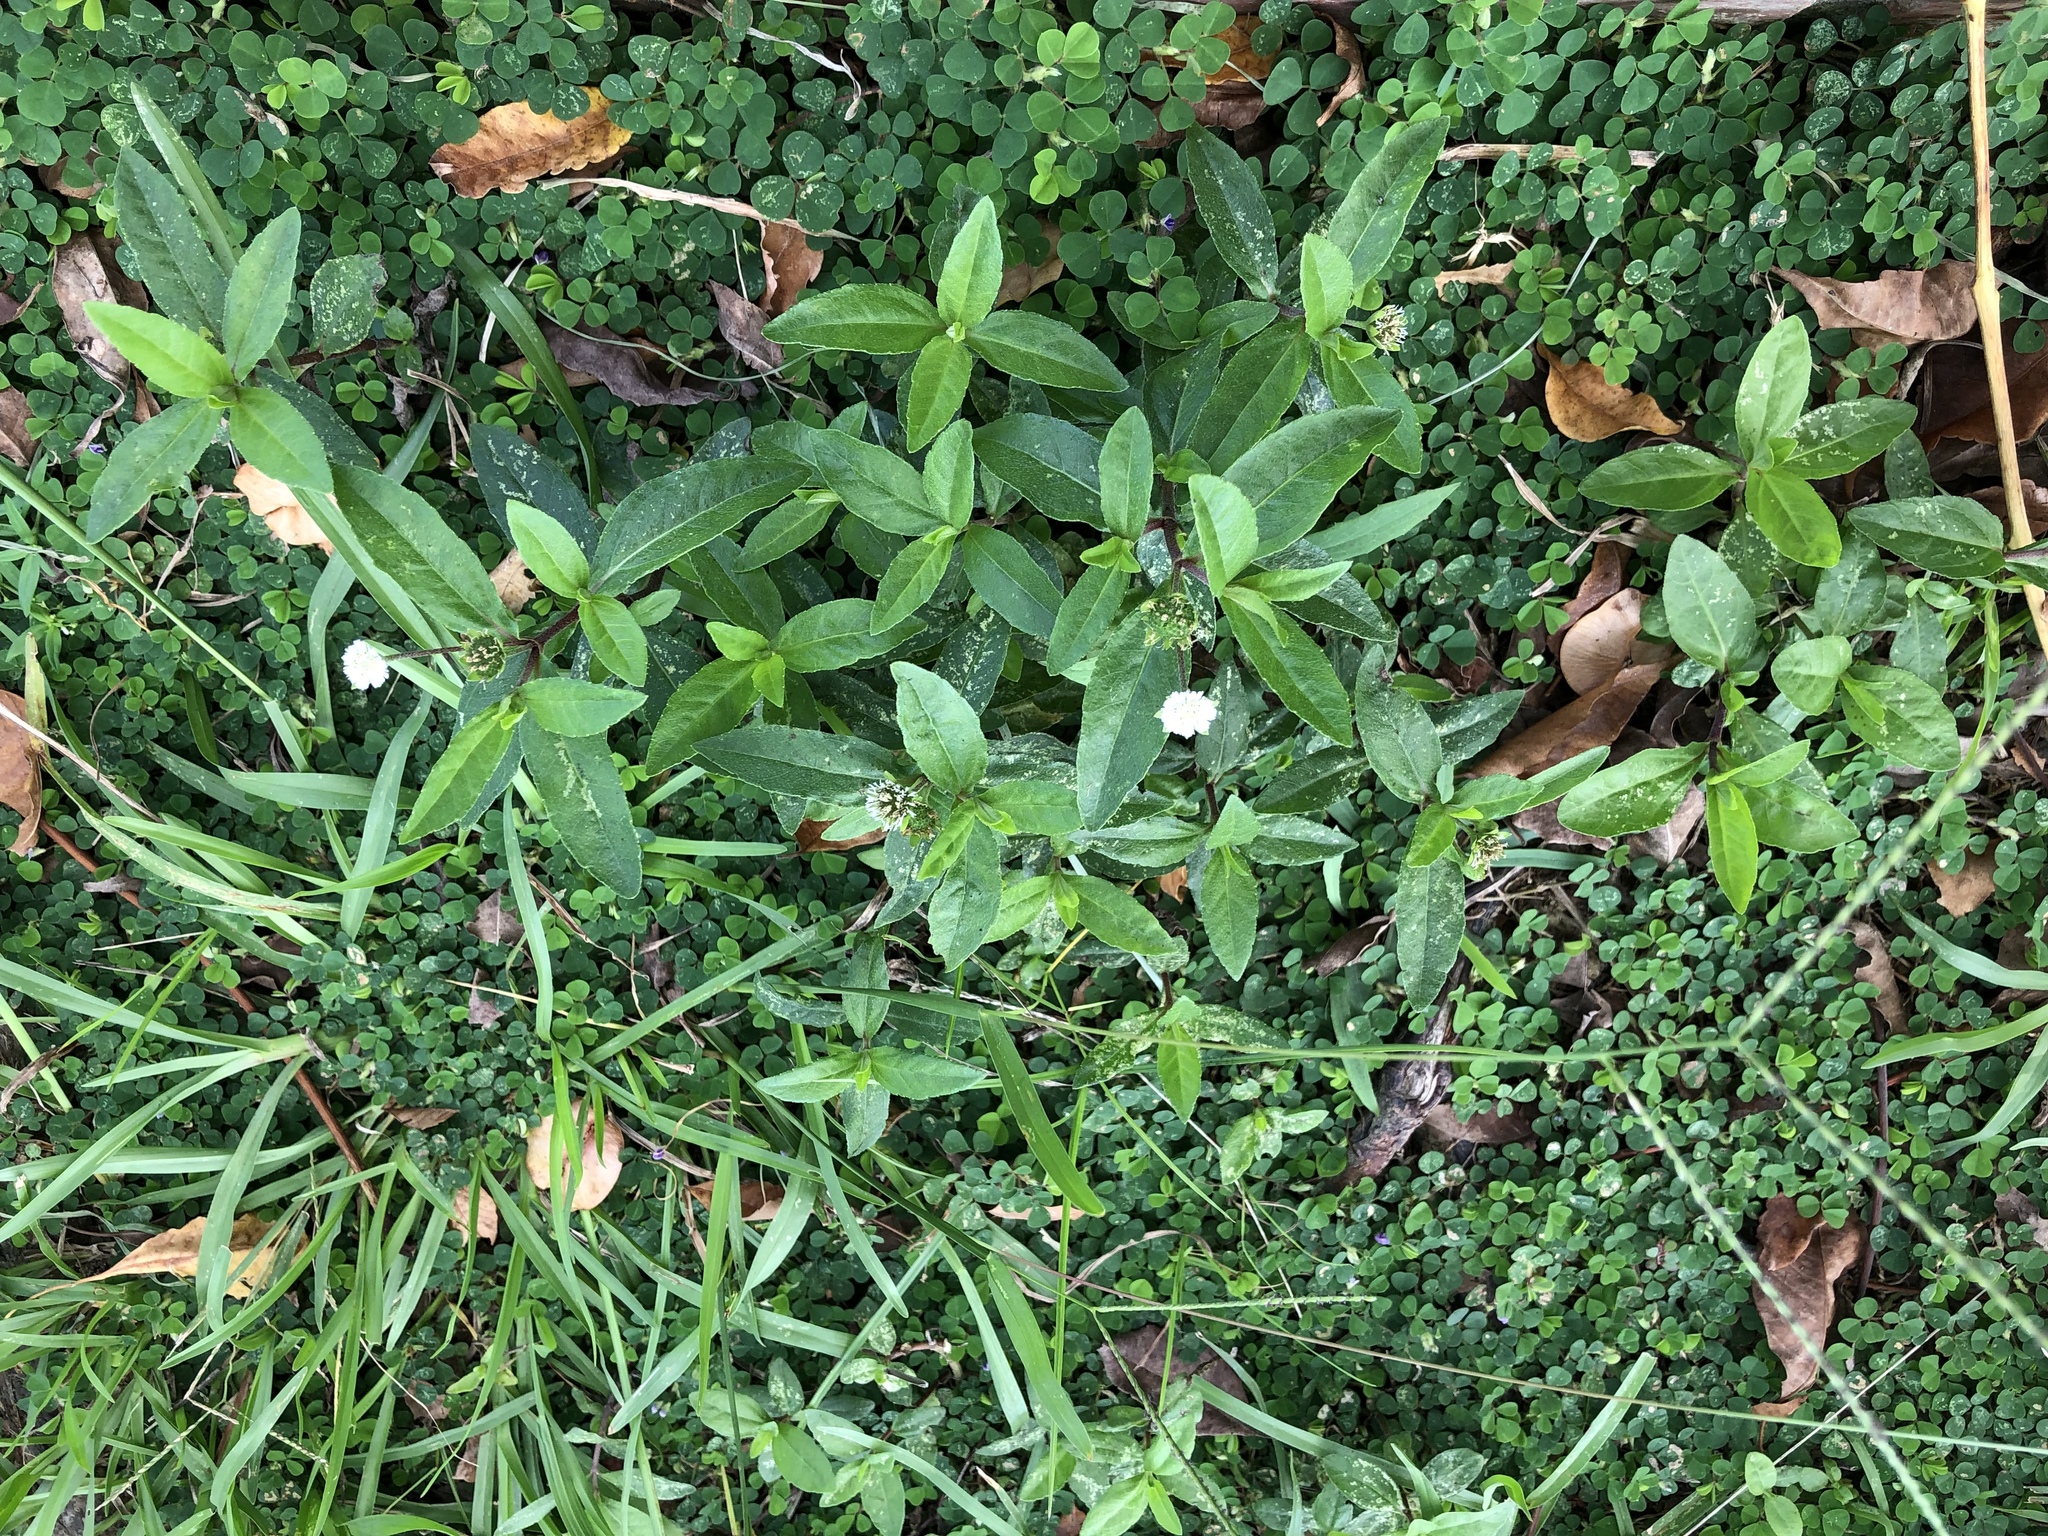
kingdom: Plantae
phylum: Tracheophyta
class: Magnoliopsida
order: Asterales
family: Asteraceae
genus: Eclipta
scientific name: Eclipta prostrata
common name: False daisy
